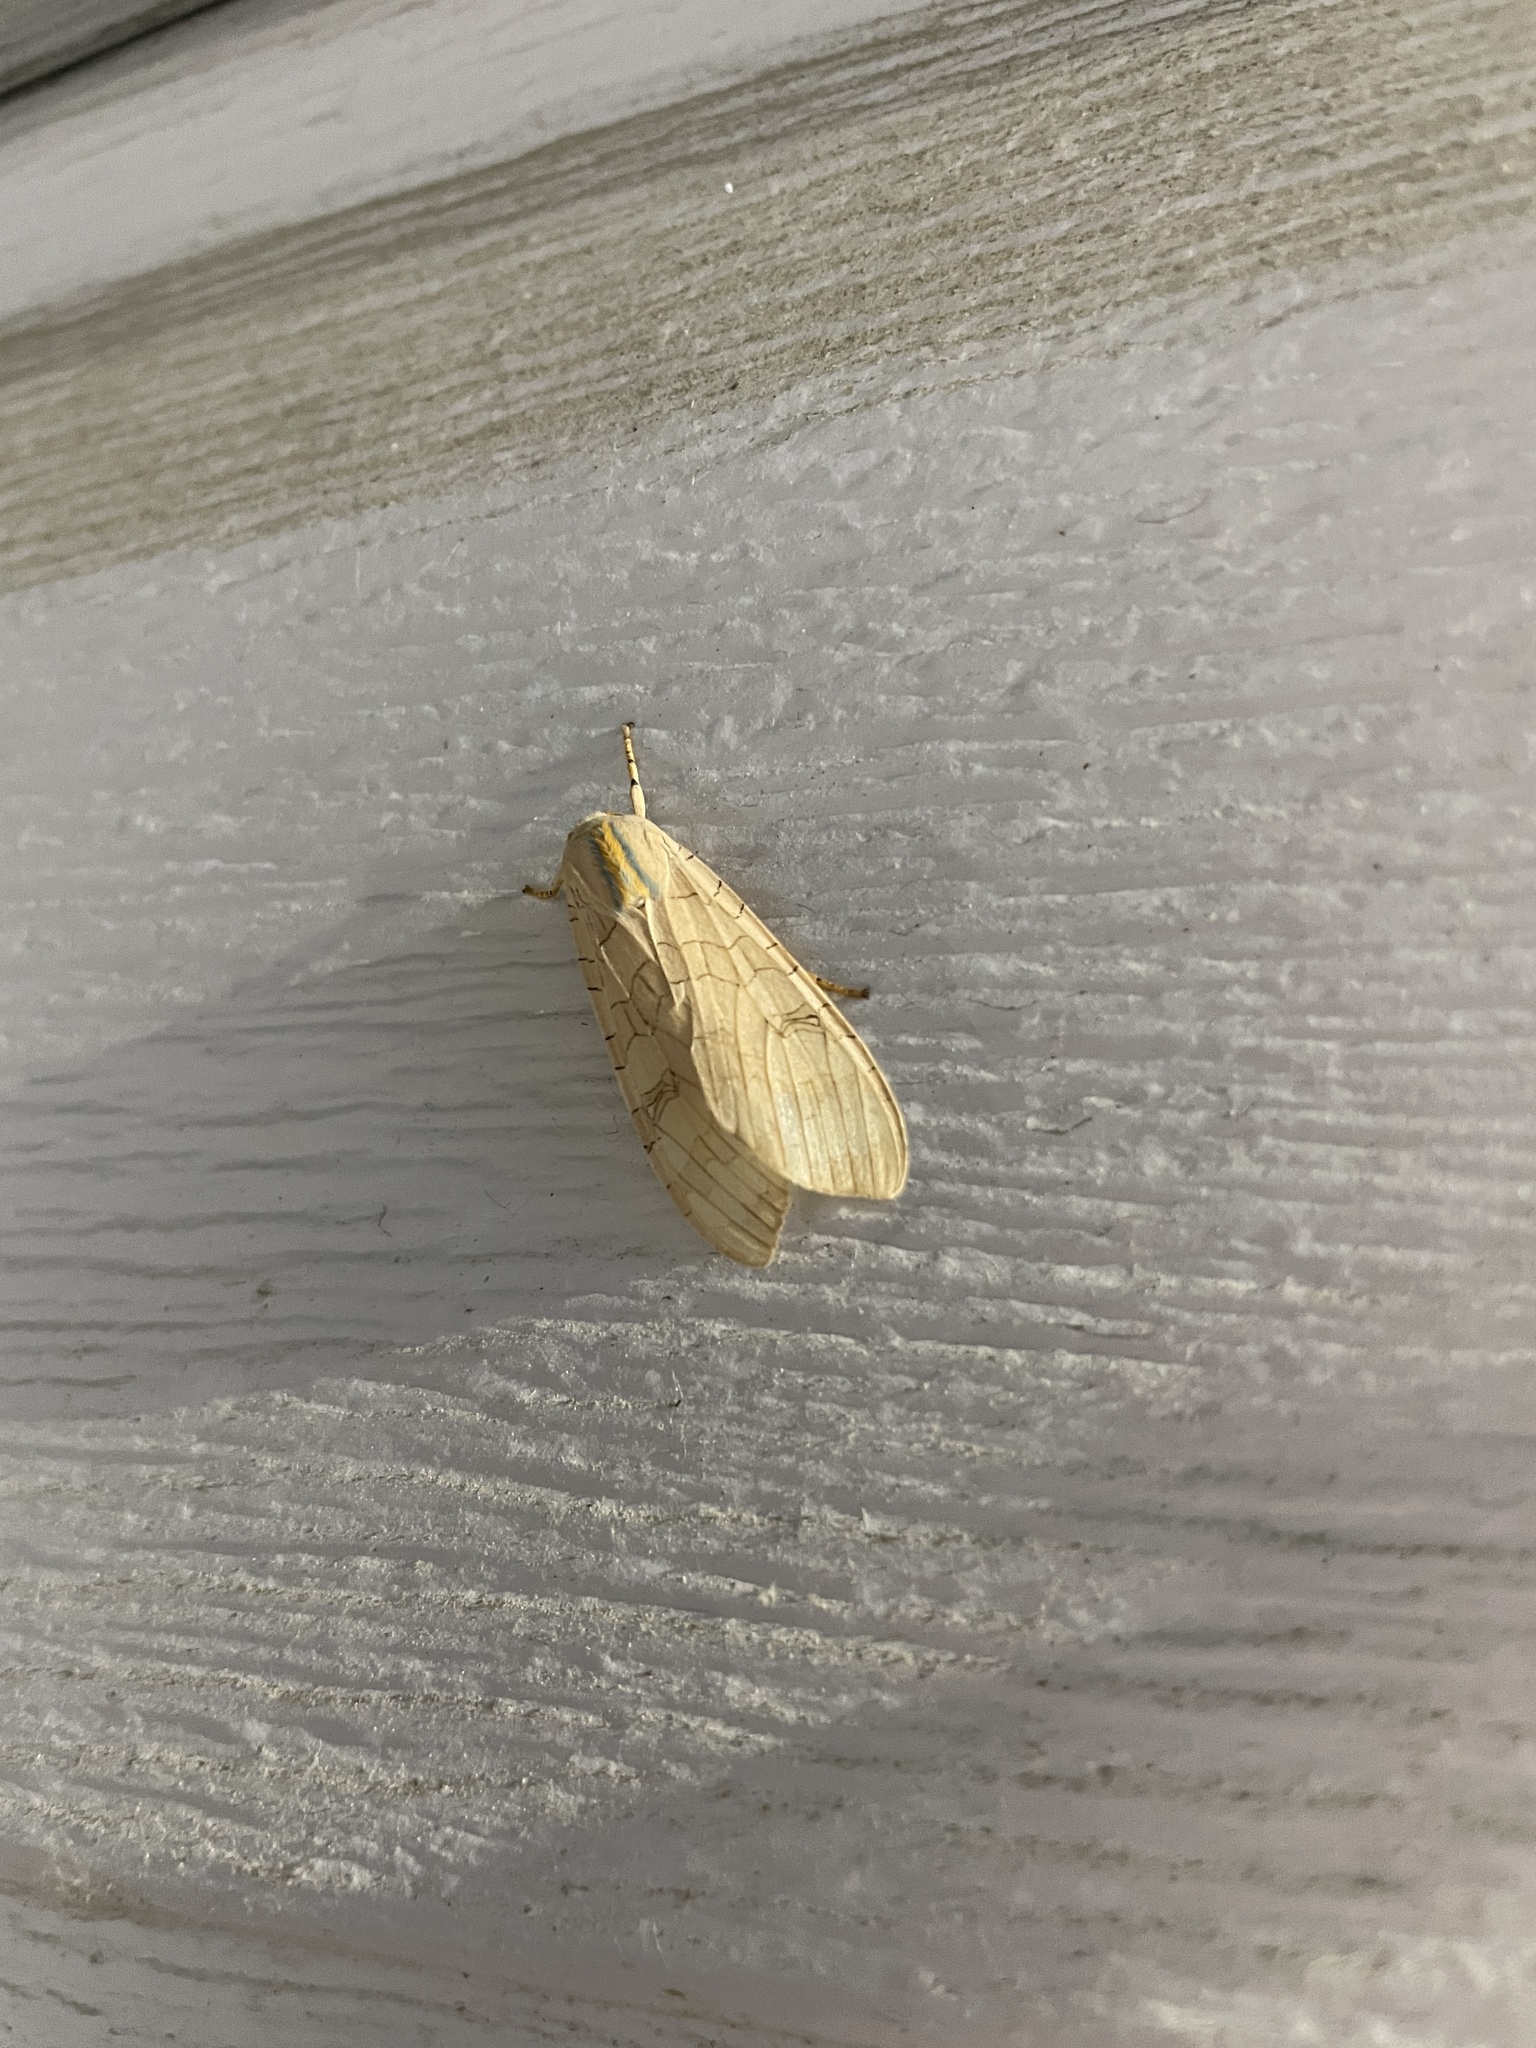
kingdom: Animalia
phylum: Arthropoda
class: Insecta
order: Lepidoptera
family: Erebidae
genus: Halysidota
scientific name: Halysidota
